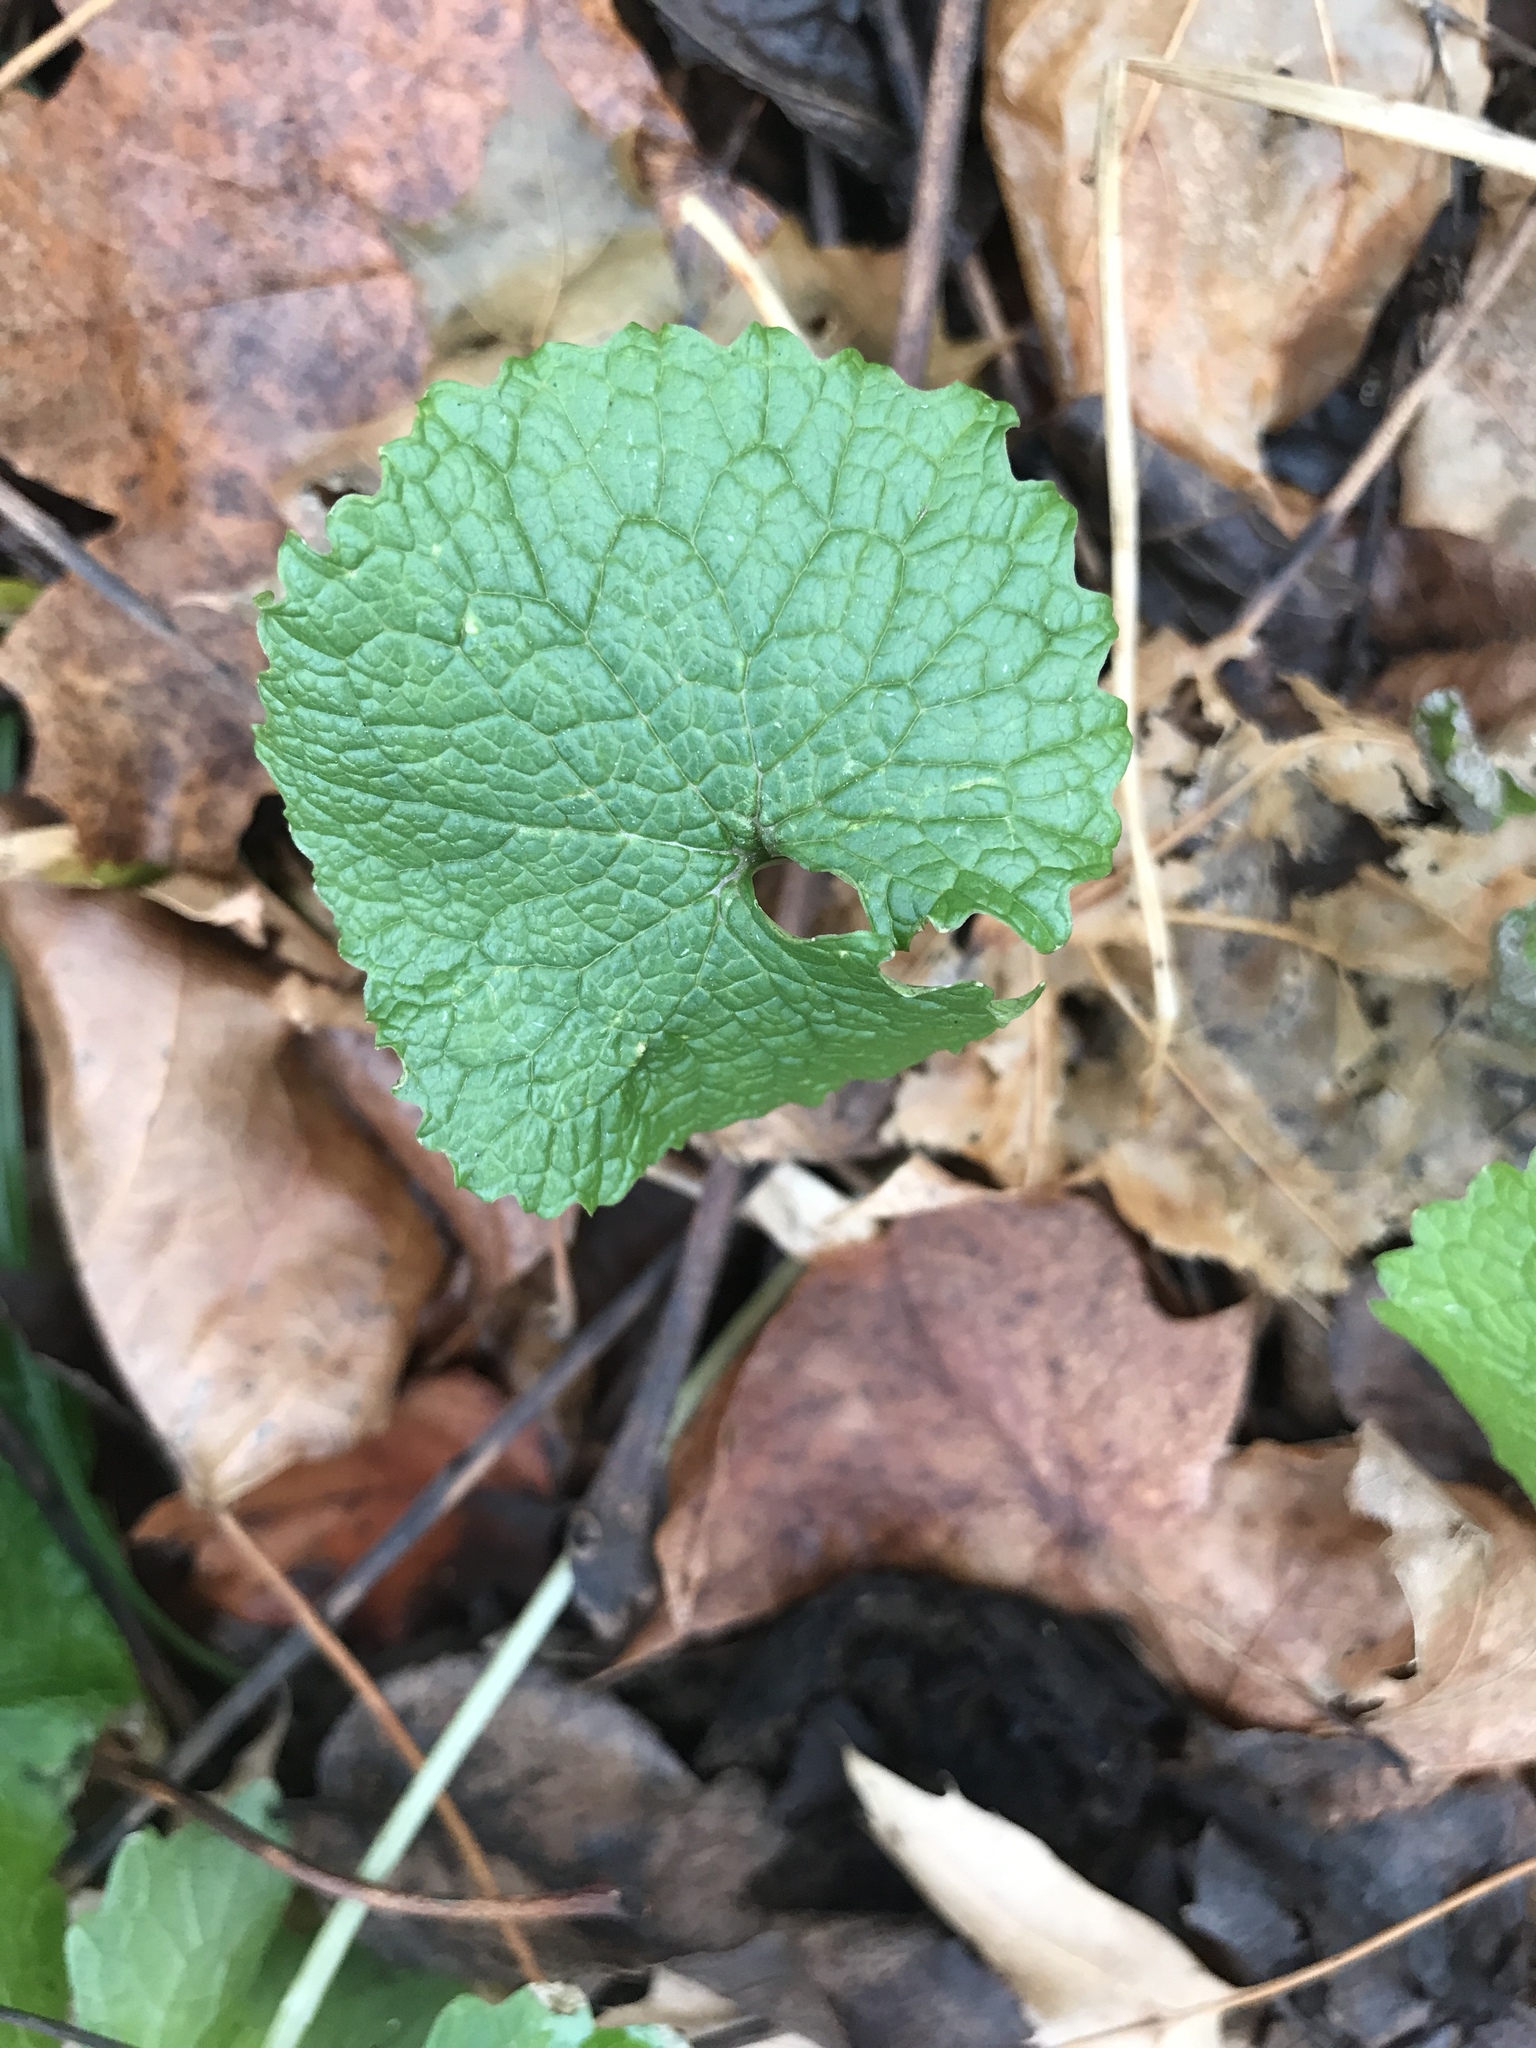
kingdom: Plantae
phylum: Tracheophyta
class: Magnoliopsida
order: Brassicales
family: Brassicaceae
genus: Alliaria
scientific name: Alliaria petiolata
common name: Garlic mustard
